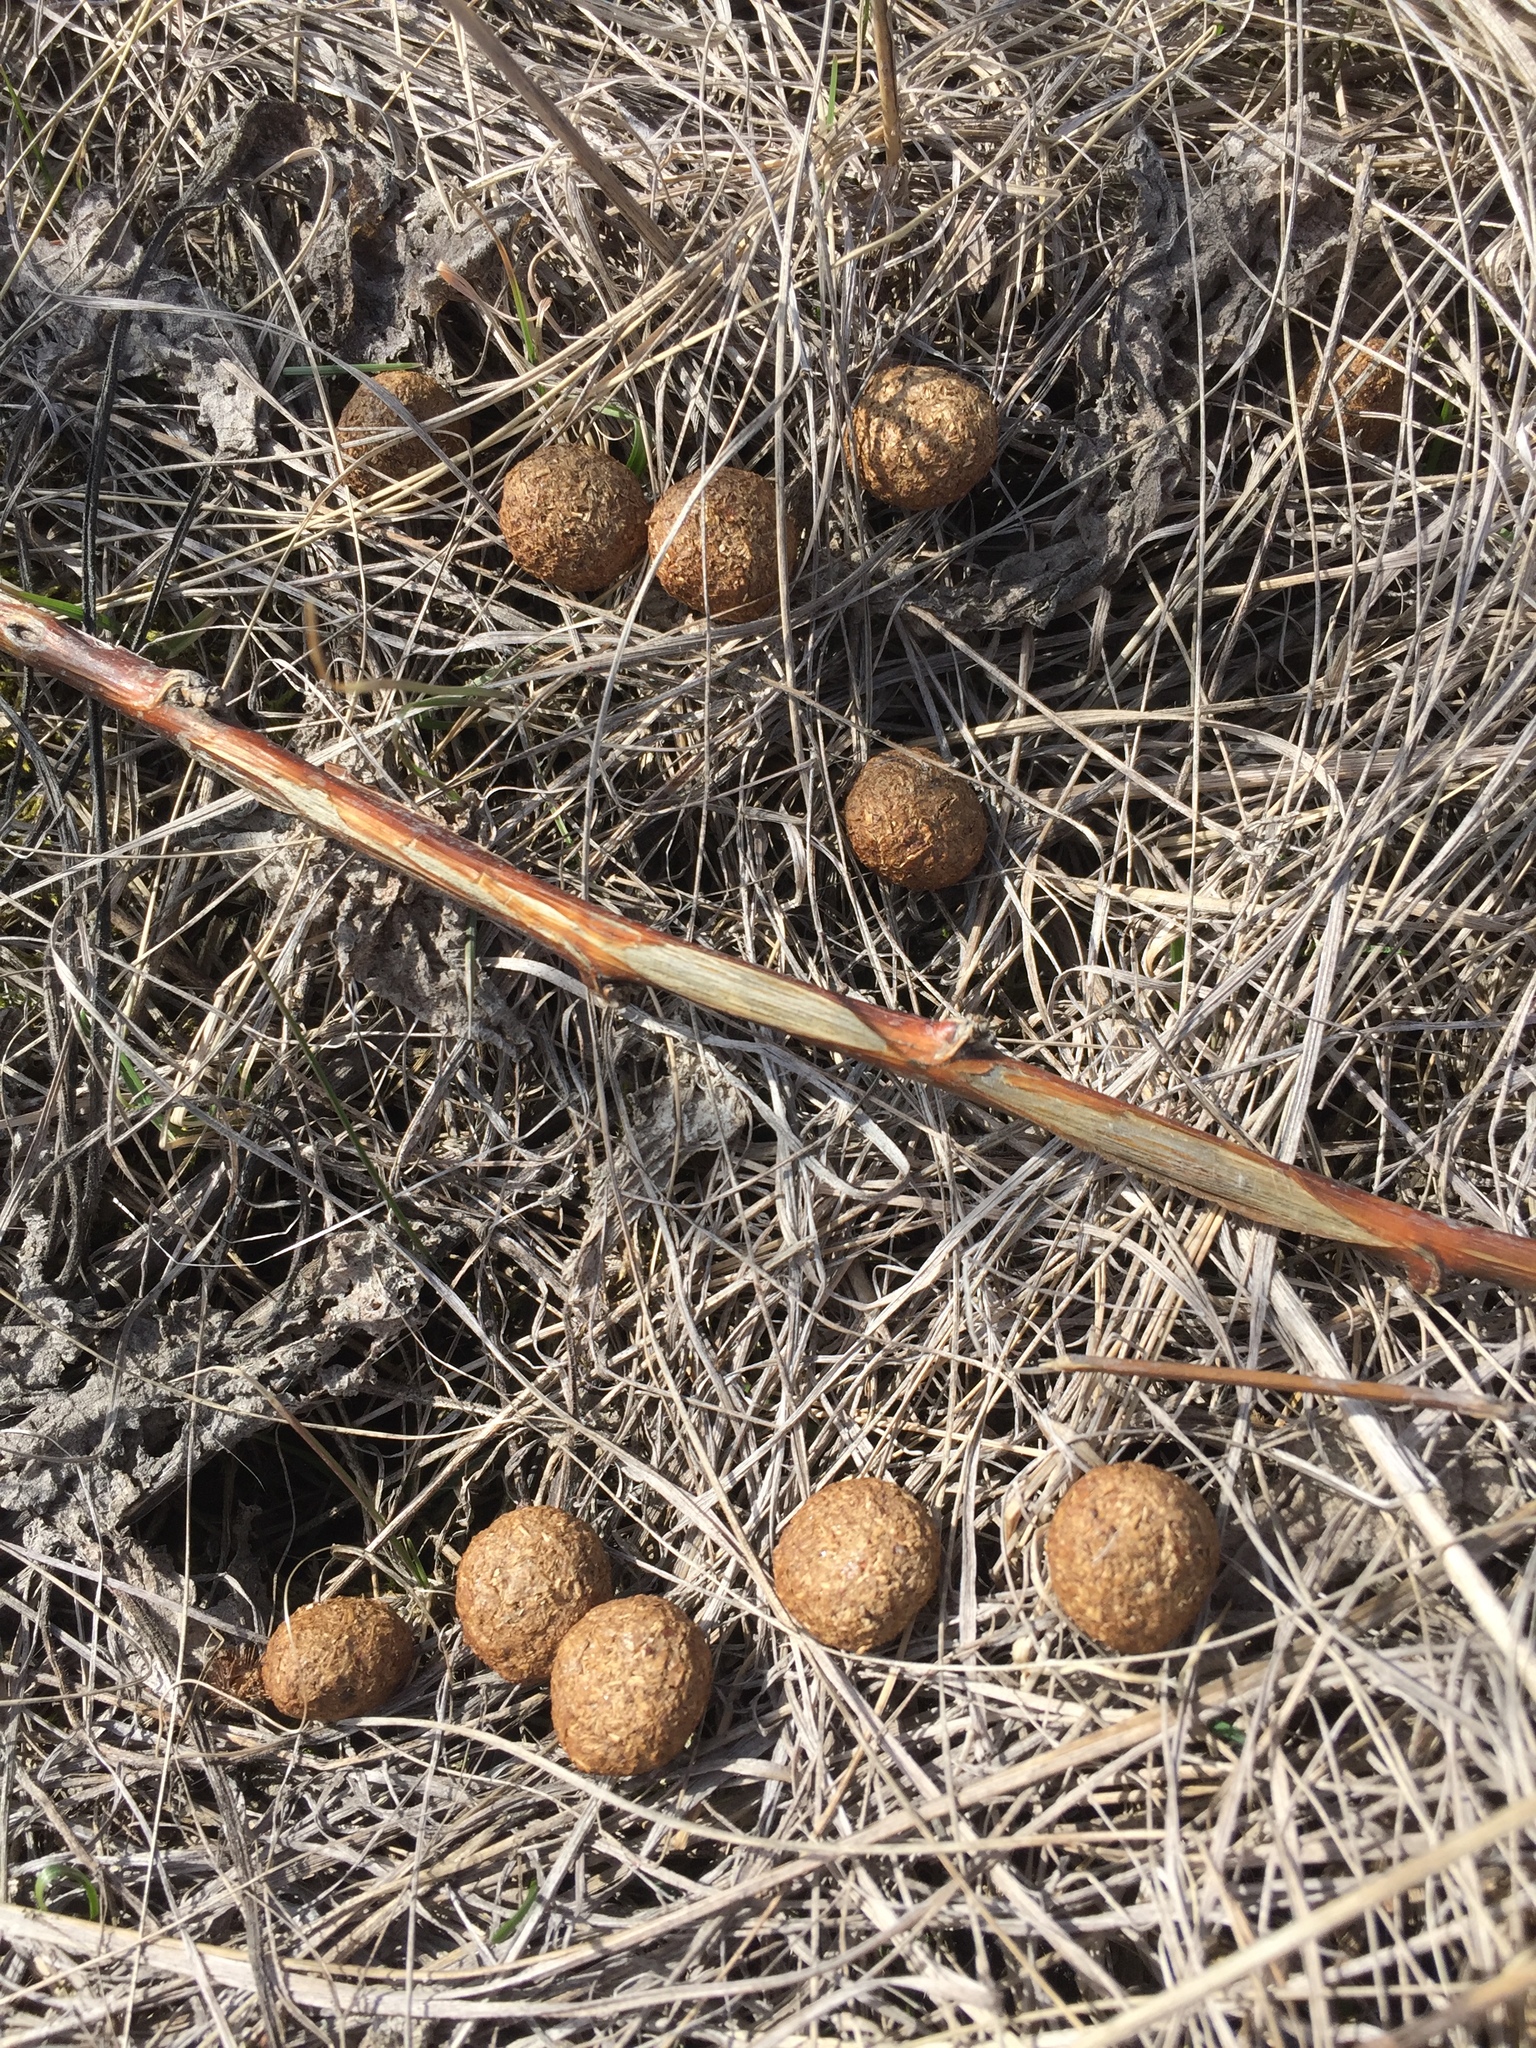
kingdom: Animalia
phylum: Chordata
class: Mammalia
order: Lagomorpha
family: Leporidae
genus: Lepus
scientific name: Lepus europaeus
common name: European hare
